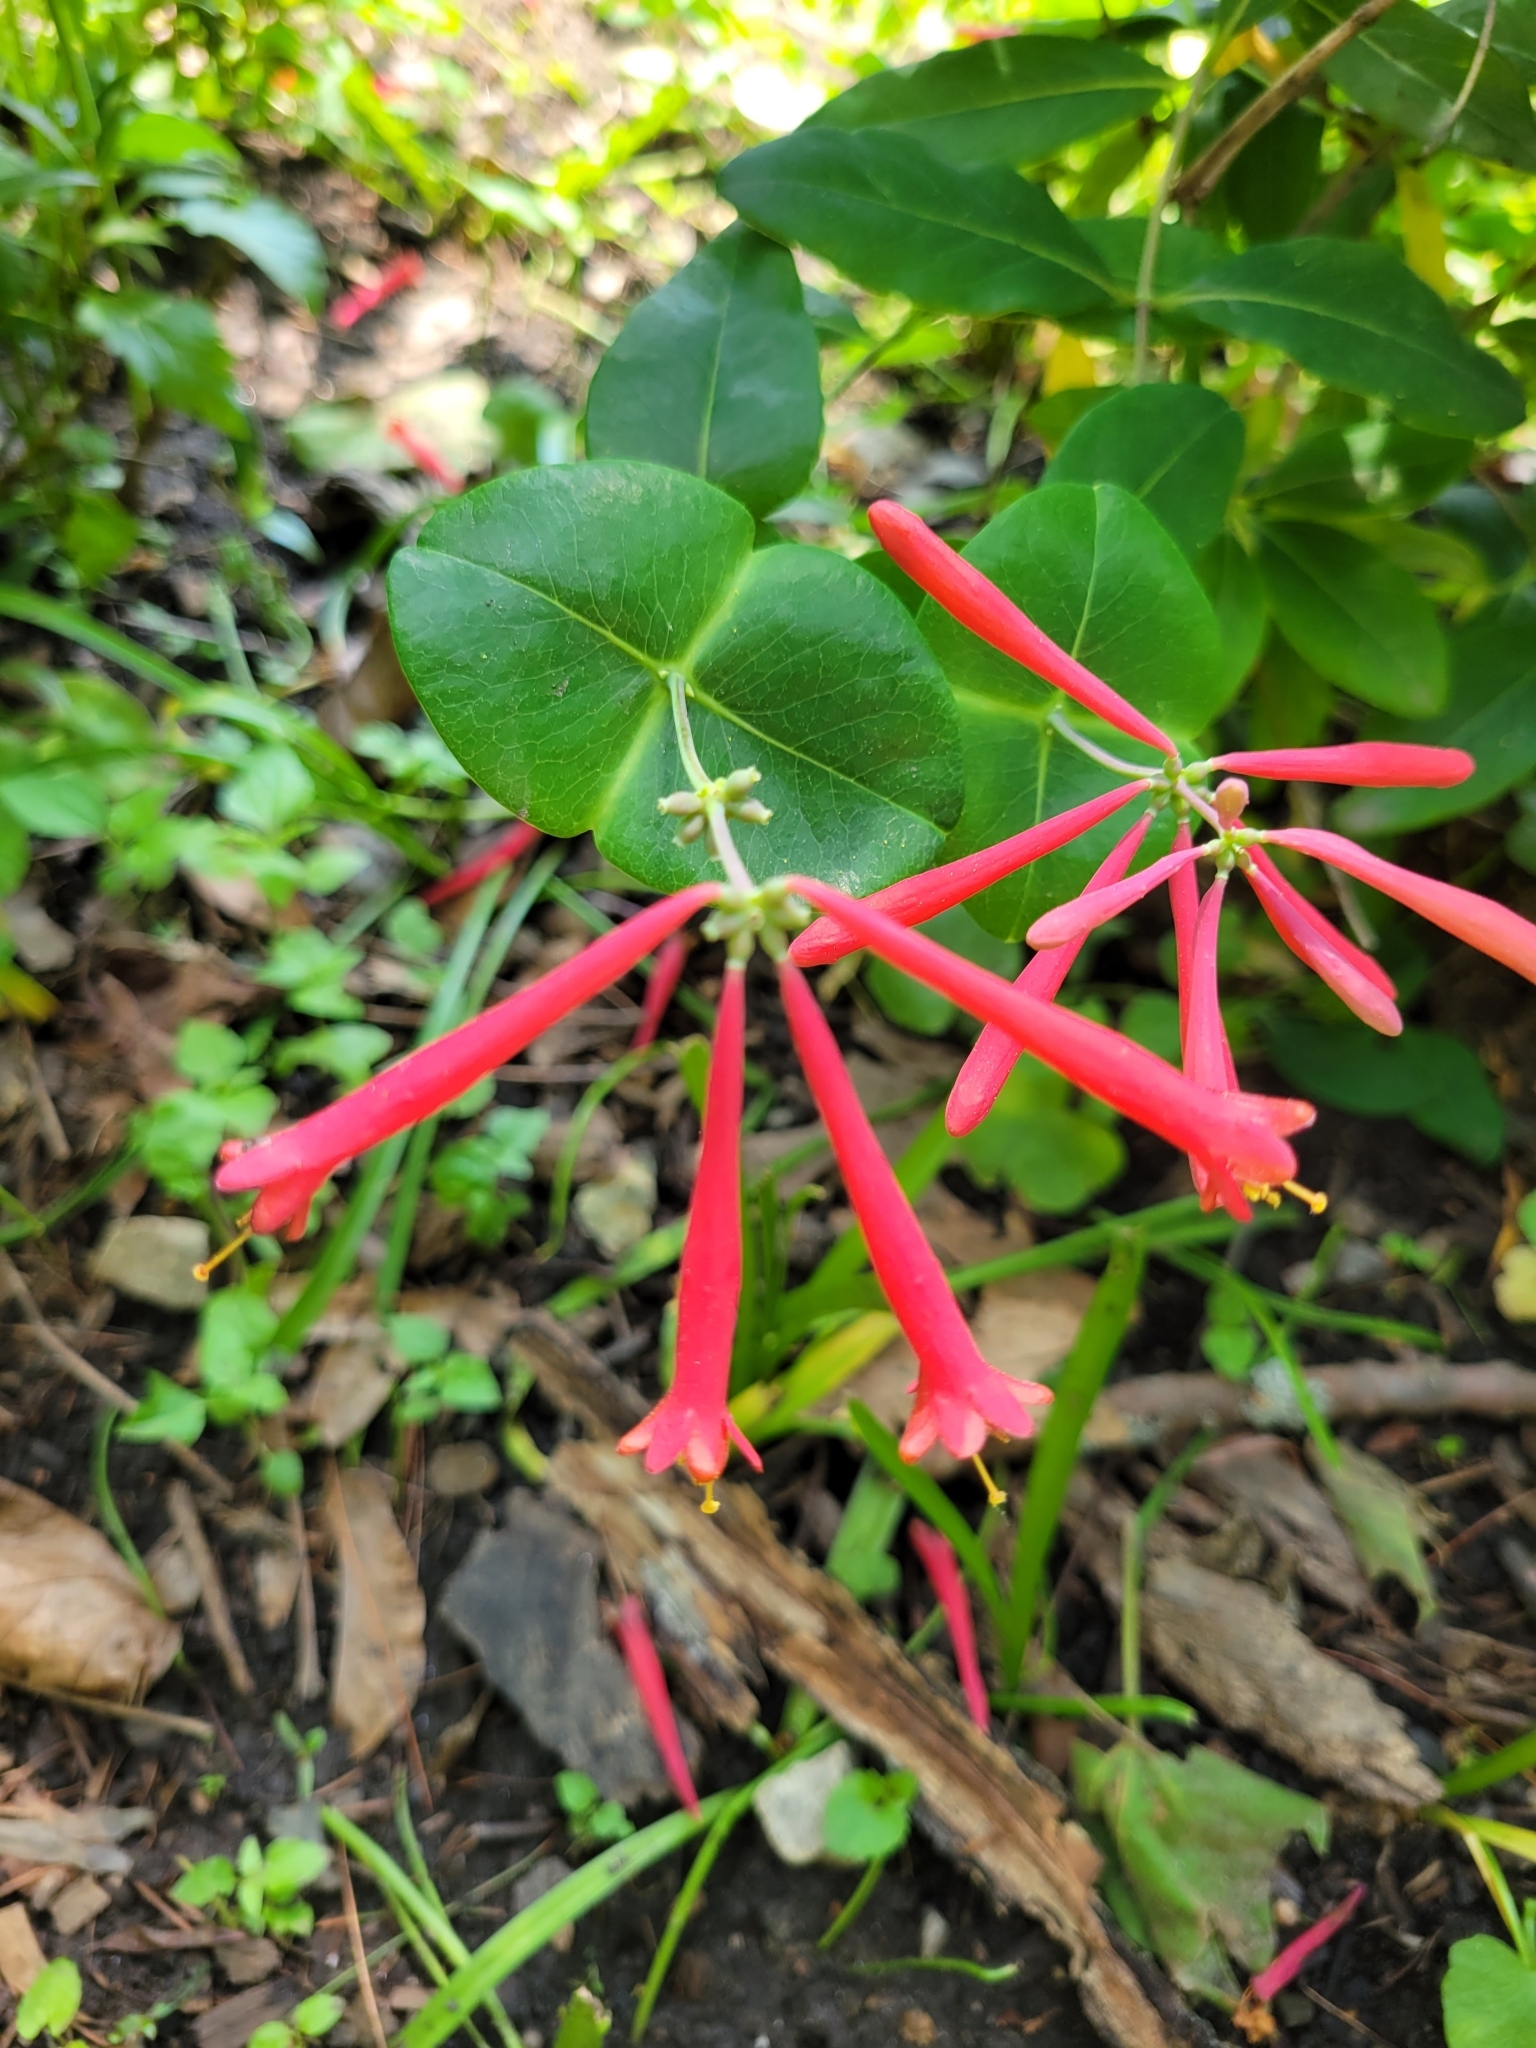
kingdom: Plantae
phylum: Tracheophyta
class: Magnoliopsida
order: Dipsacales
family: Caprifoliaceae
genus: Lonicera
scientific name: Lonicera sempervirens
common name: Coral honeysuckle
